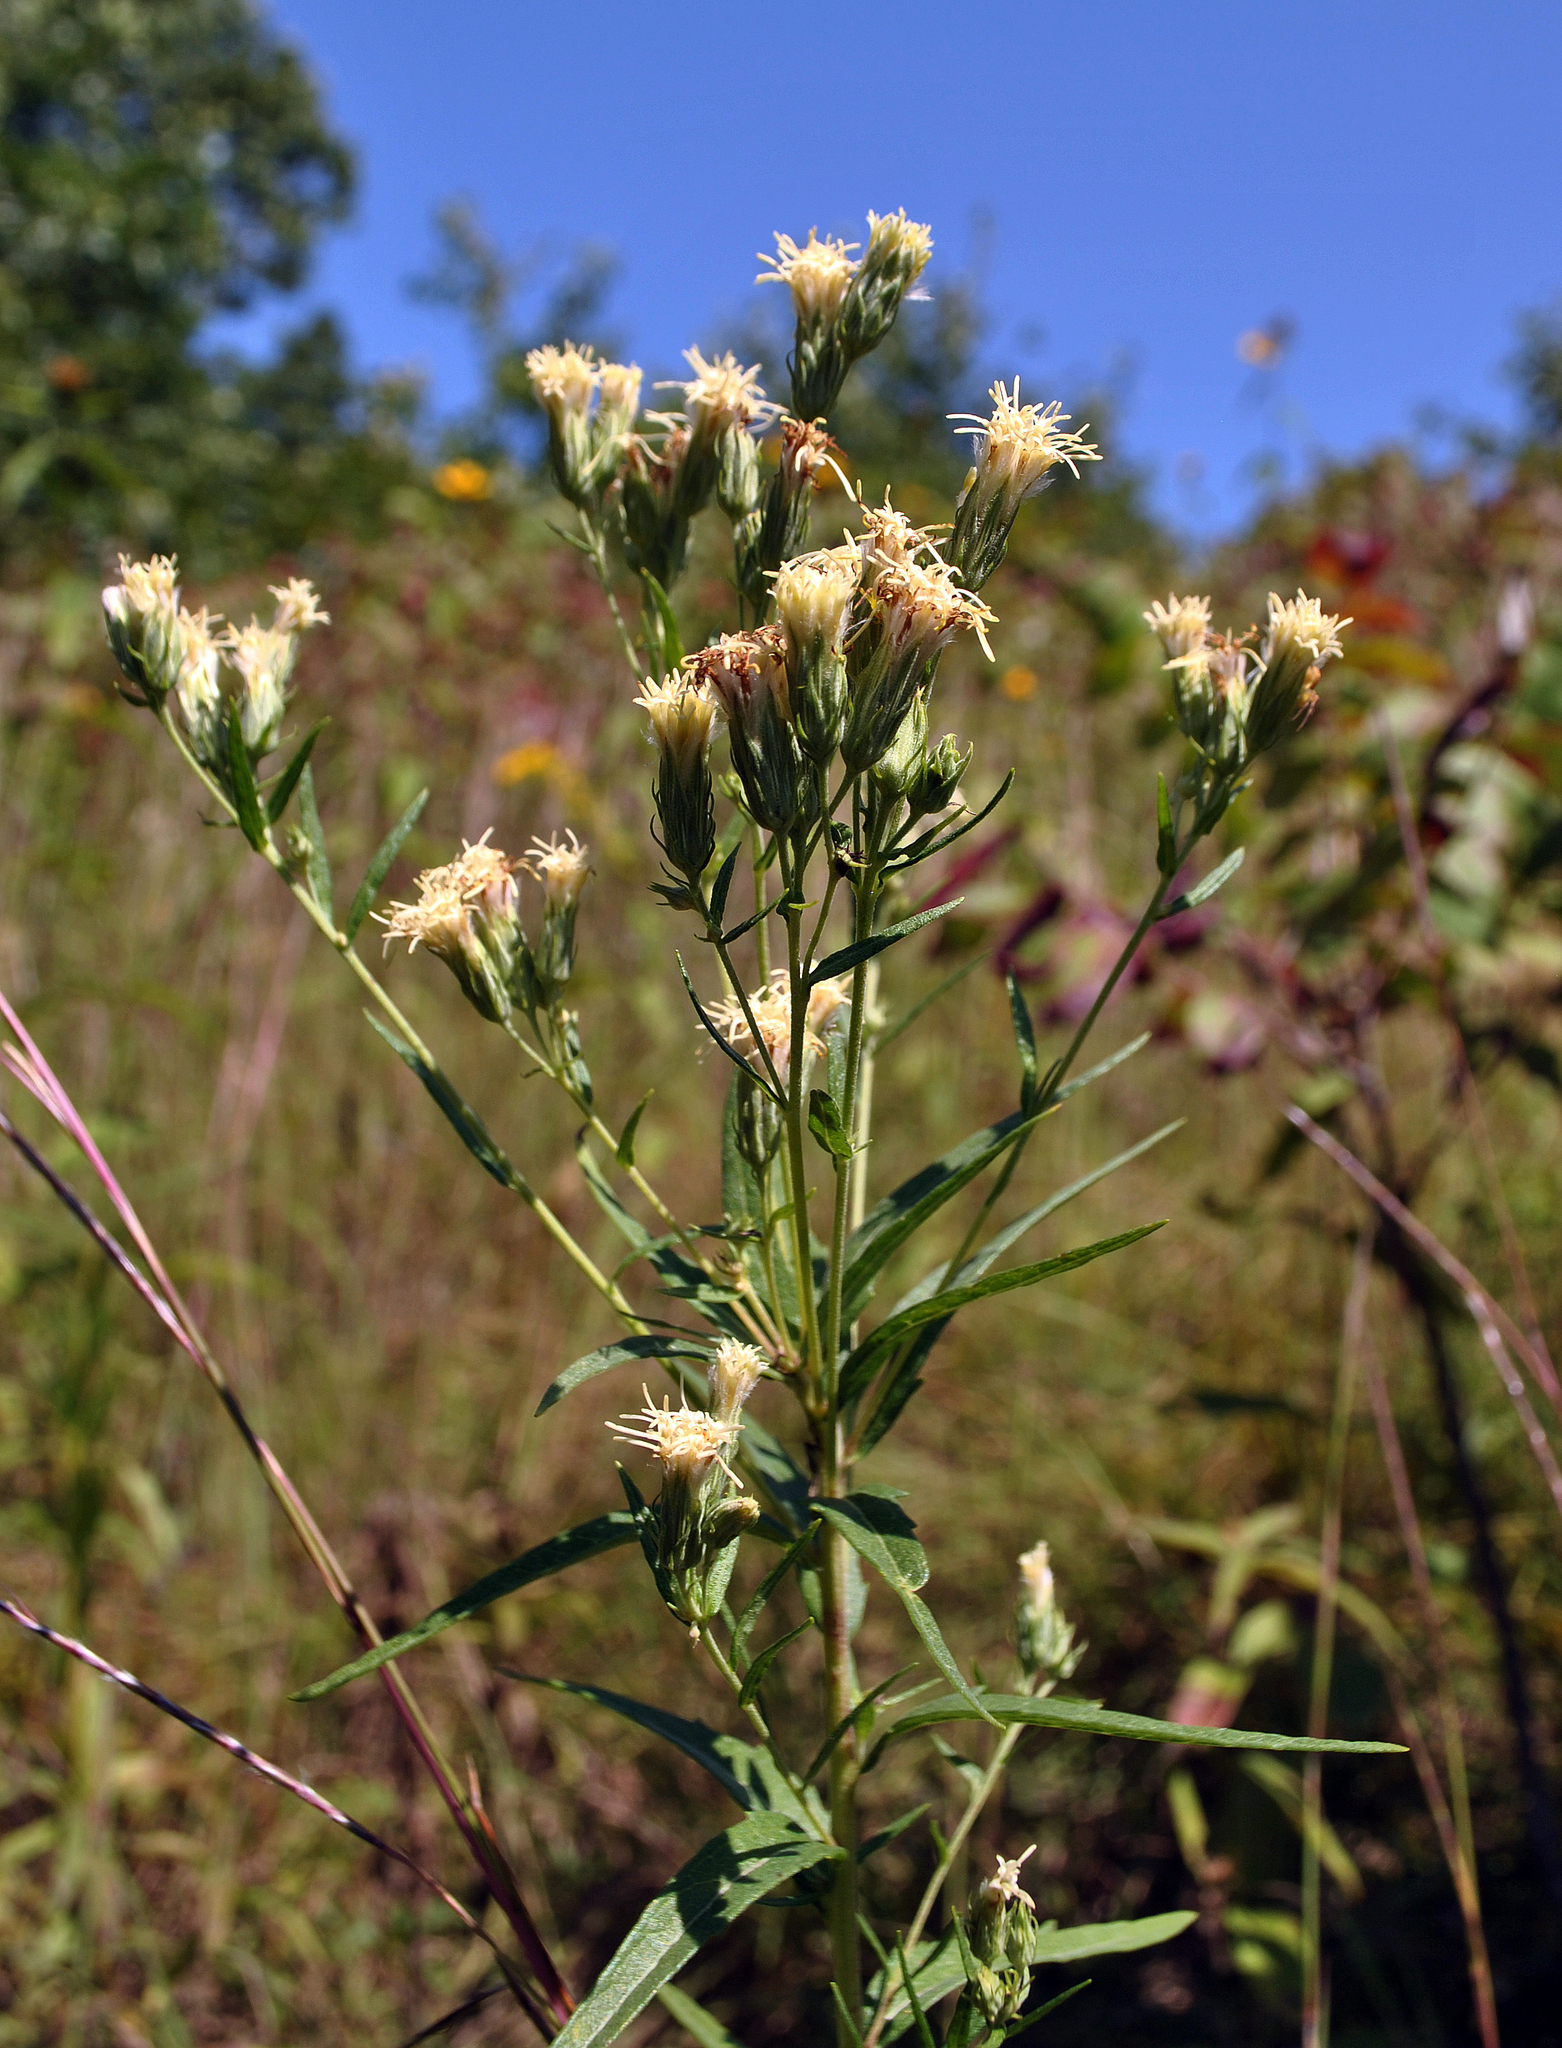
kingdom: Plantae
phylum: Tracheophyta
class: Magnoliopsida
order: Asterales
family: Asteraceae
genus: Brickellia
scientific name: Brickellia eupatorioides
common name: False boneset
